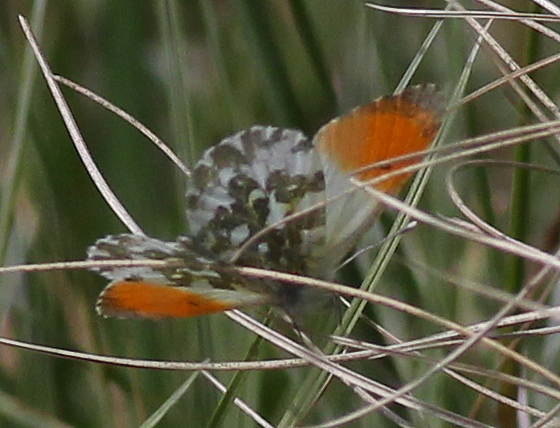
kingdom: Animalia
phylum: Arthropoda
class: Insecta
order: Lepidoptera
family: Pieridae
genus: Anthocharis
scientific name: Anthocharis cardamines
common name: Orange-tip
